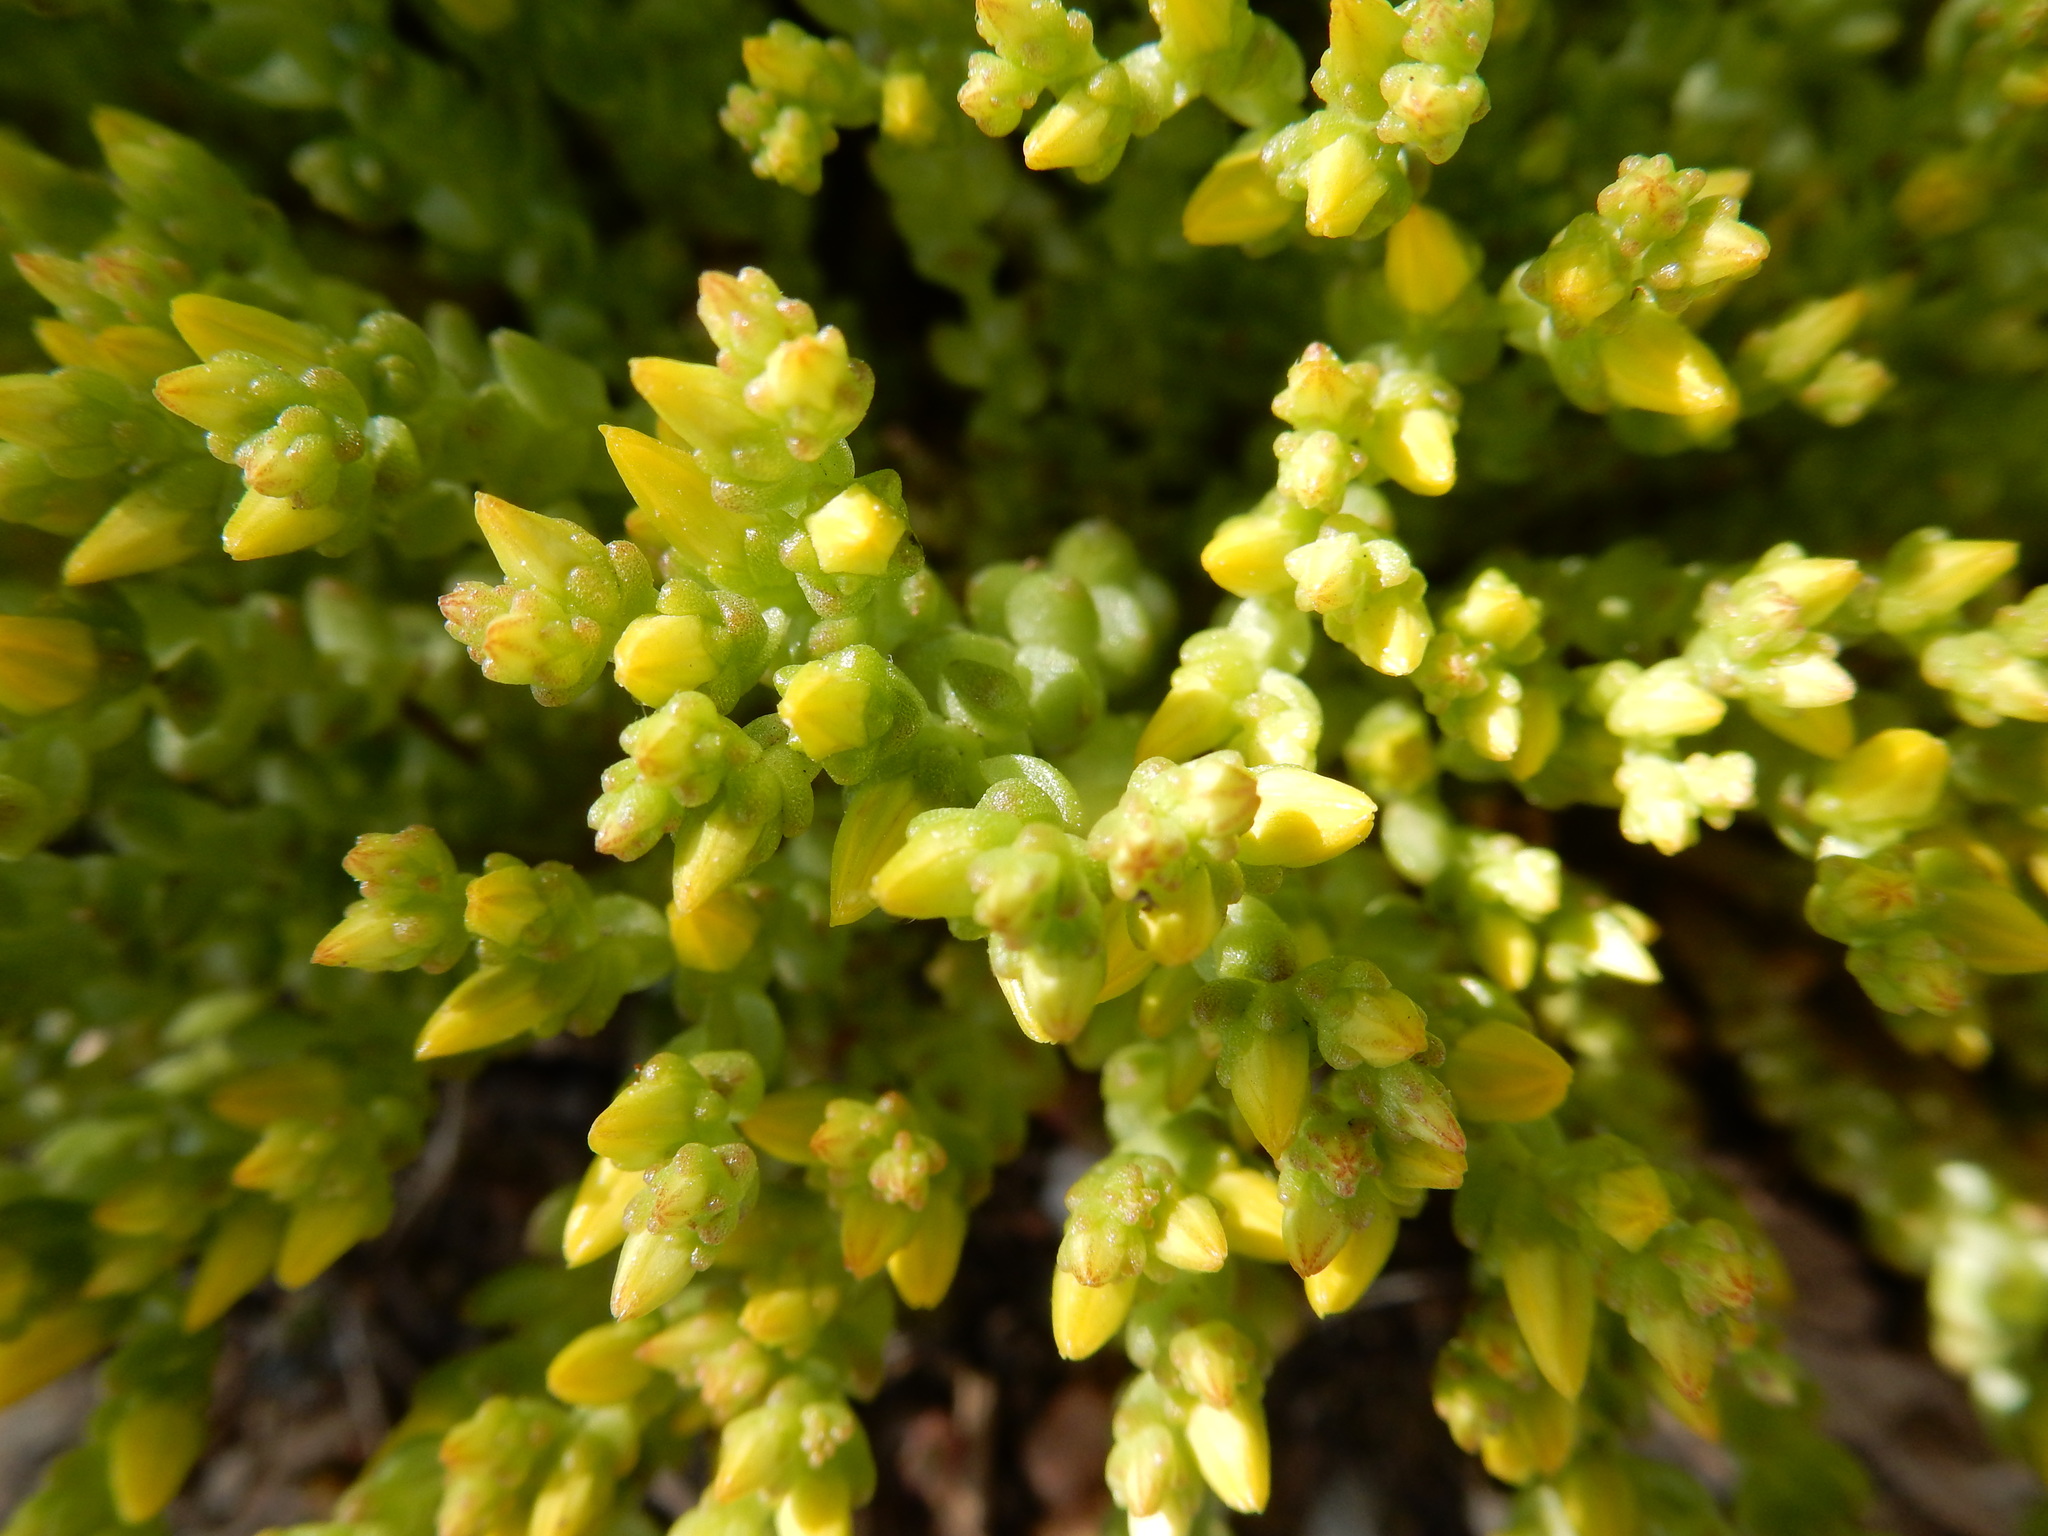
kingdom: Plantae
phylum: Tracheophyta
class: Magnoliopsida
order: Saxifragales
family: Crassulaceae
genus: Sedum
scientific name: Sedum acre
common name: Biting stonecrop
